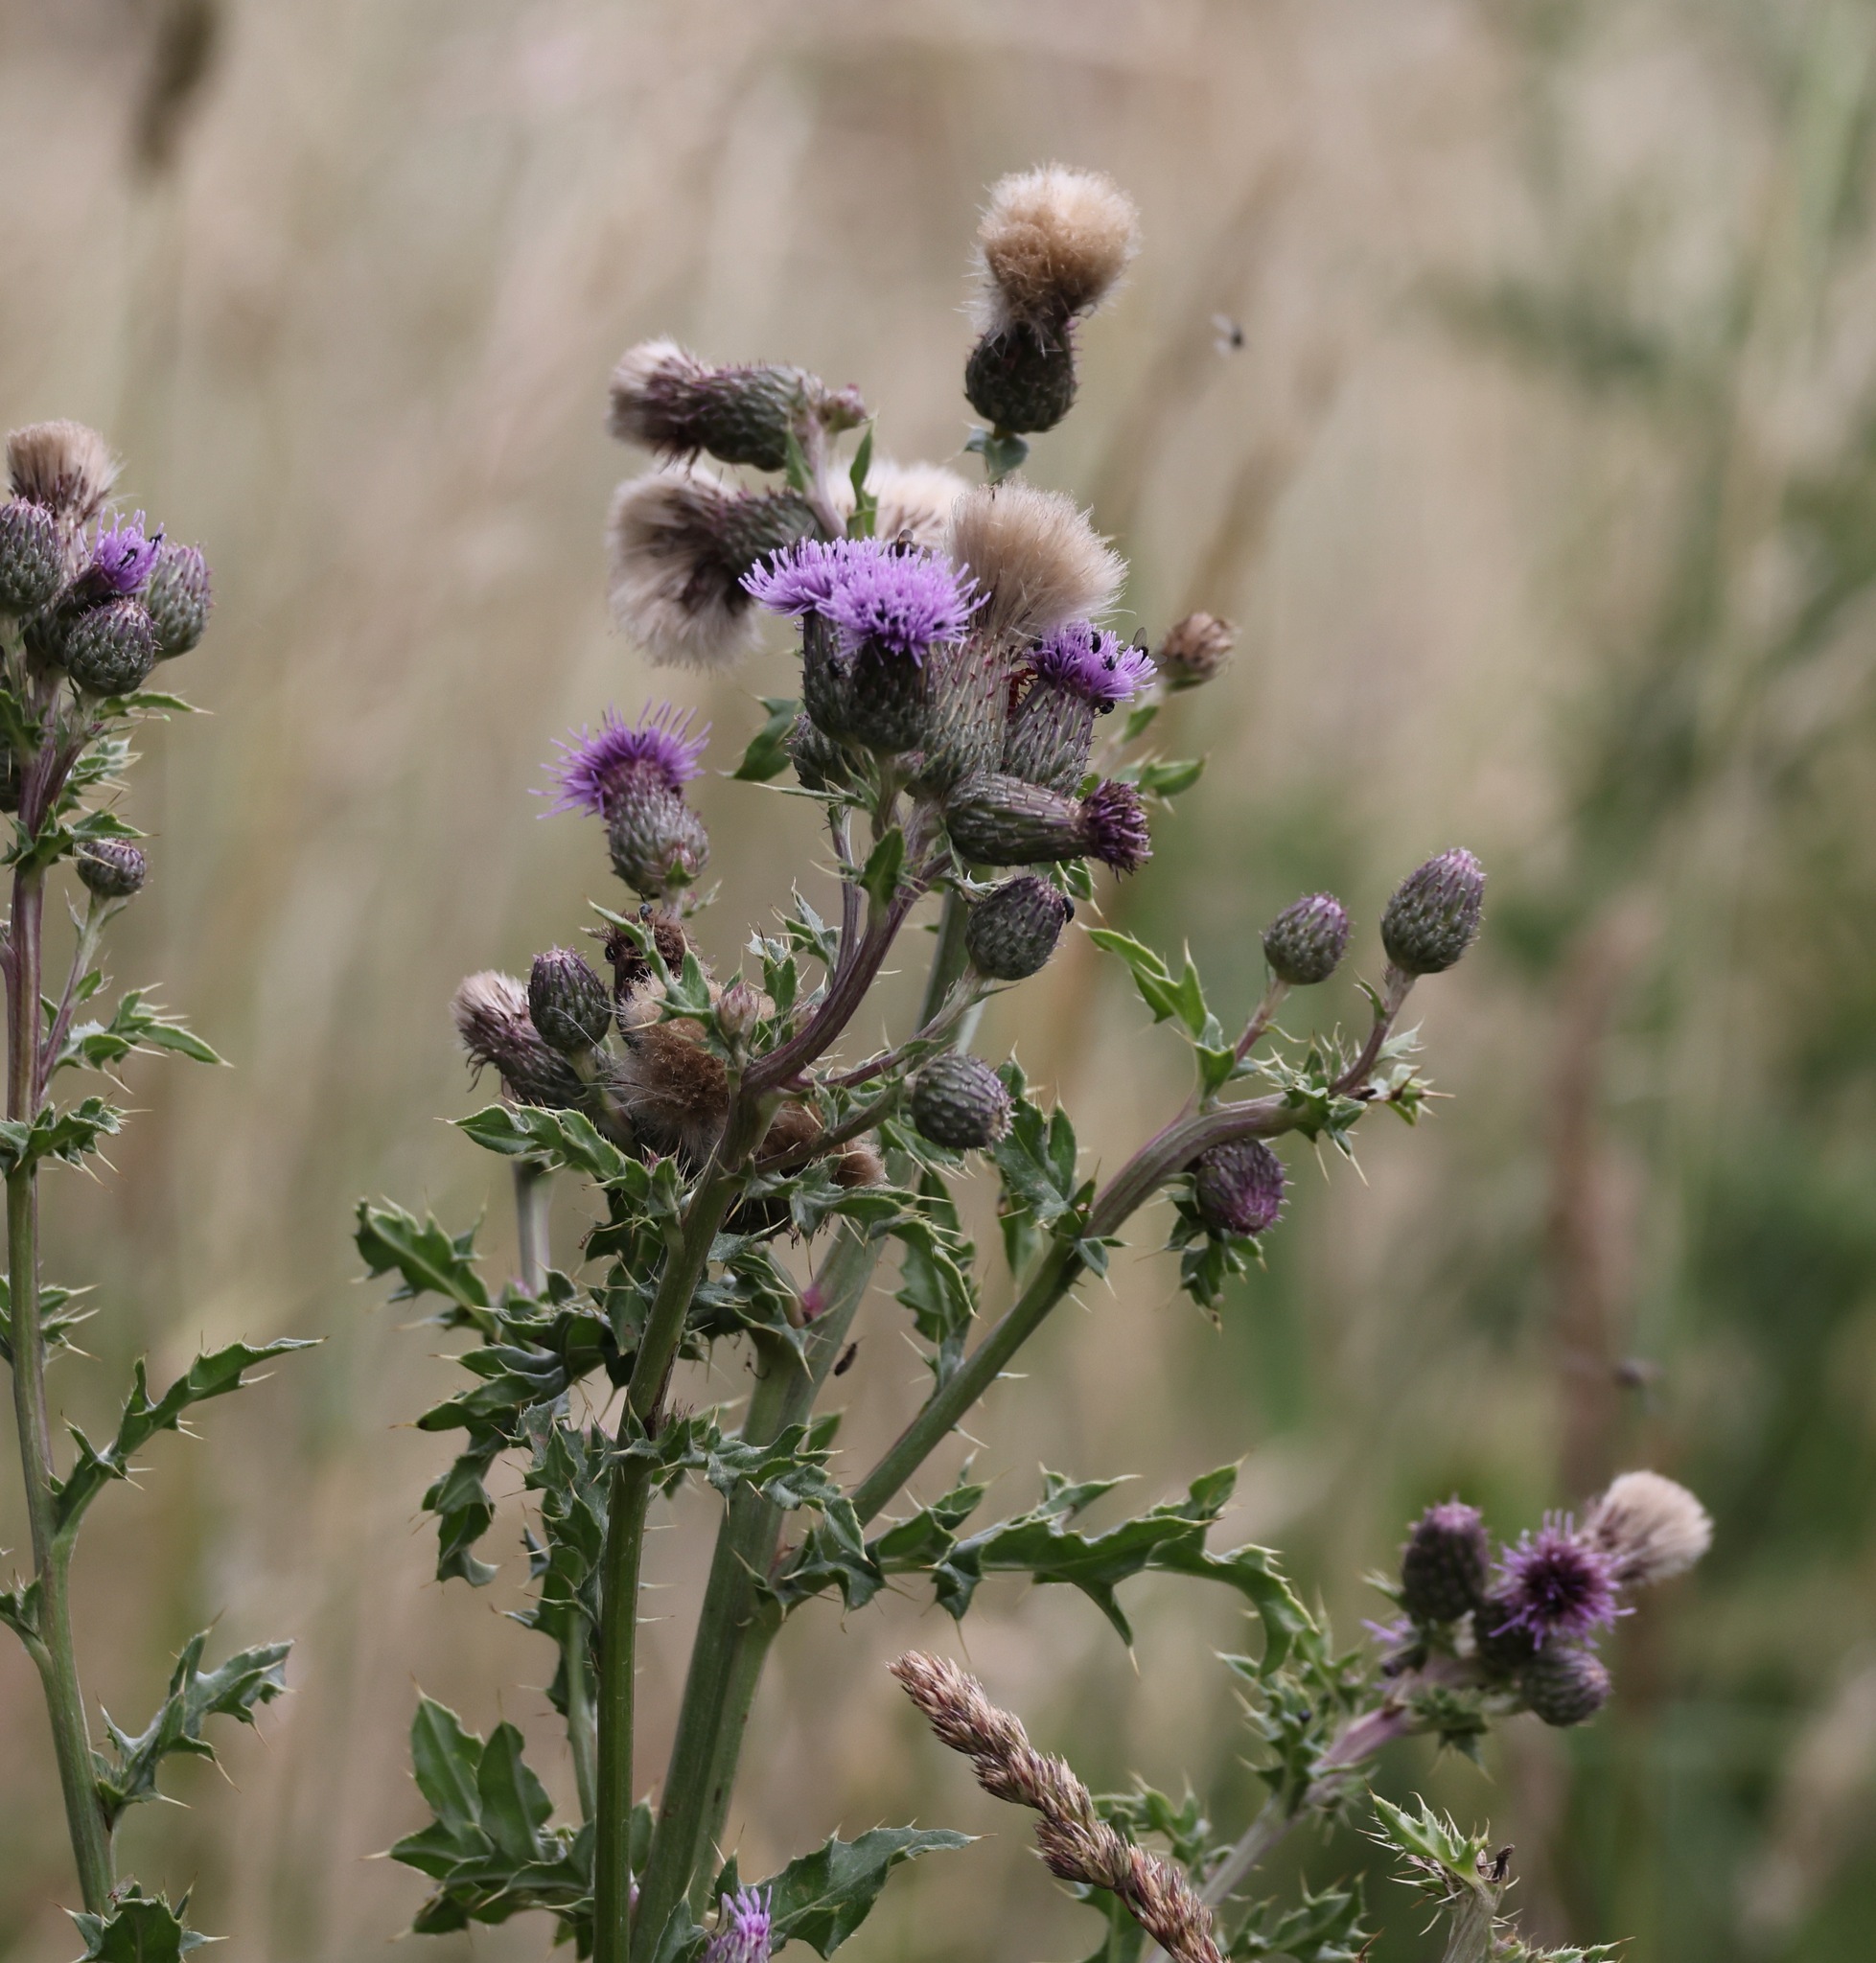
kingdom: Plantae
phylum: Tracheophyta
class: Magnoliopsida
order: Asterales
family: Asteraceae
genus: Cirsium
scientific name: Cirsium arvense
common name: Creeping thistle
